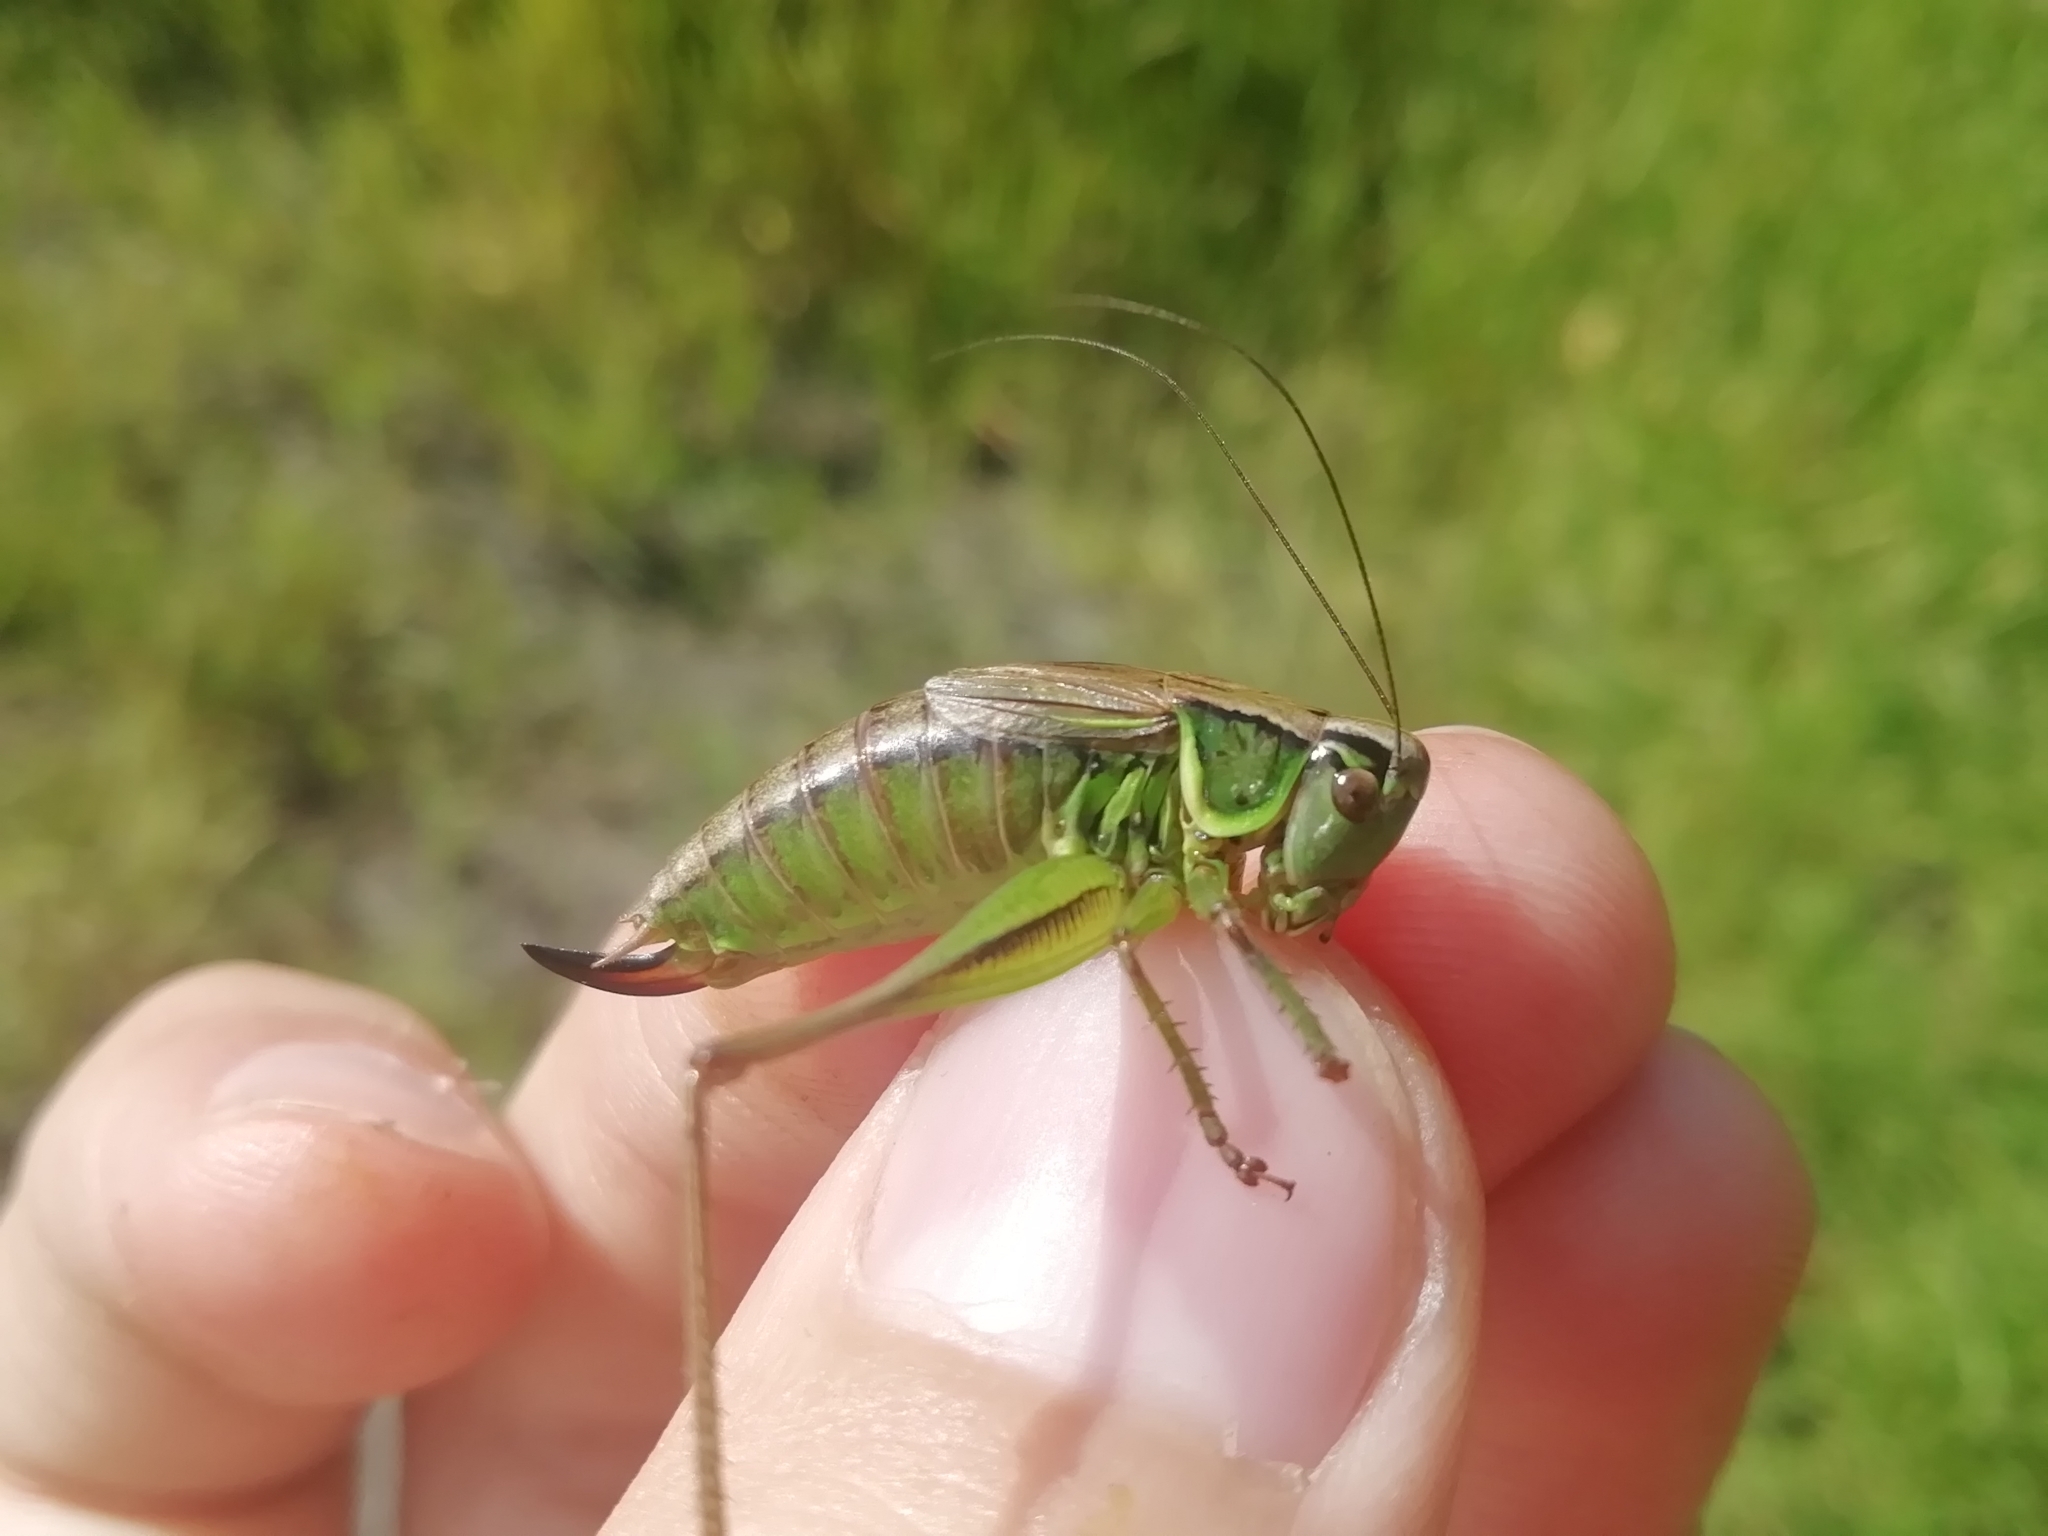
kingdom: Animalia
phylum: Arthropoda
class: Insecta
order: Orthoptera
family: Tettigoniidae
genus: Roeseliana
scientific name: Roeseliana roeselii
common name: Roesel's bush cricket
